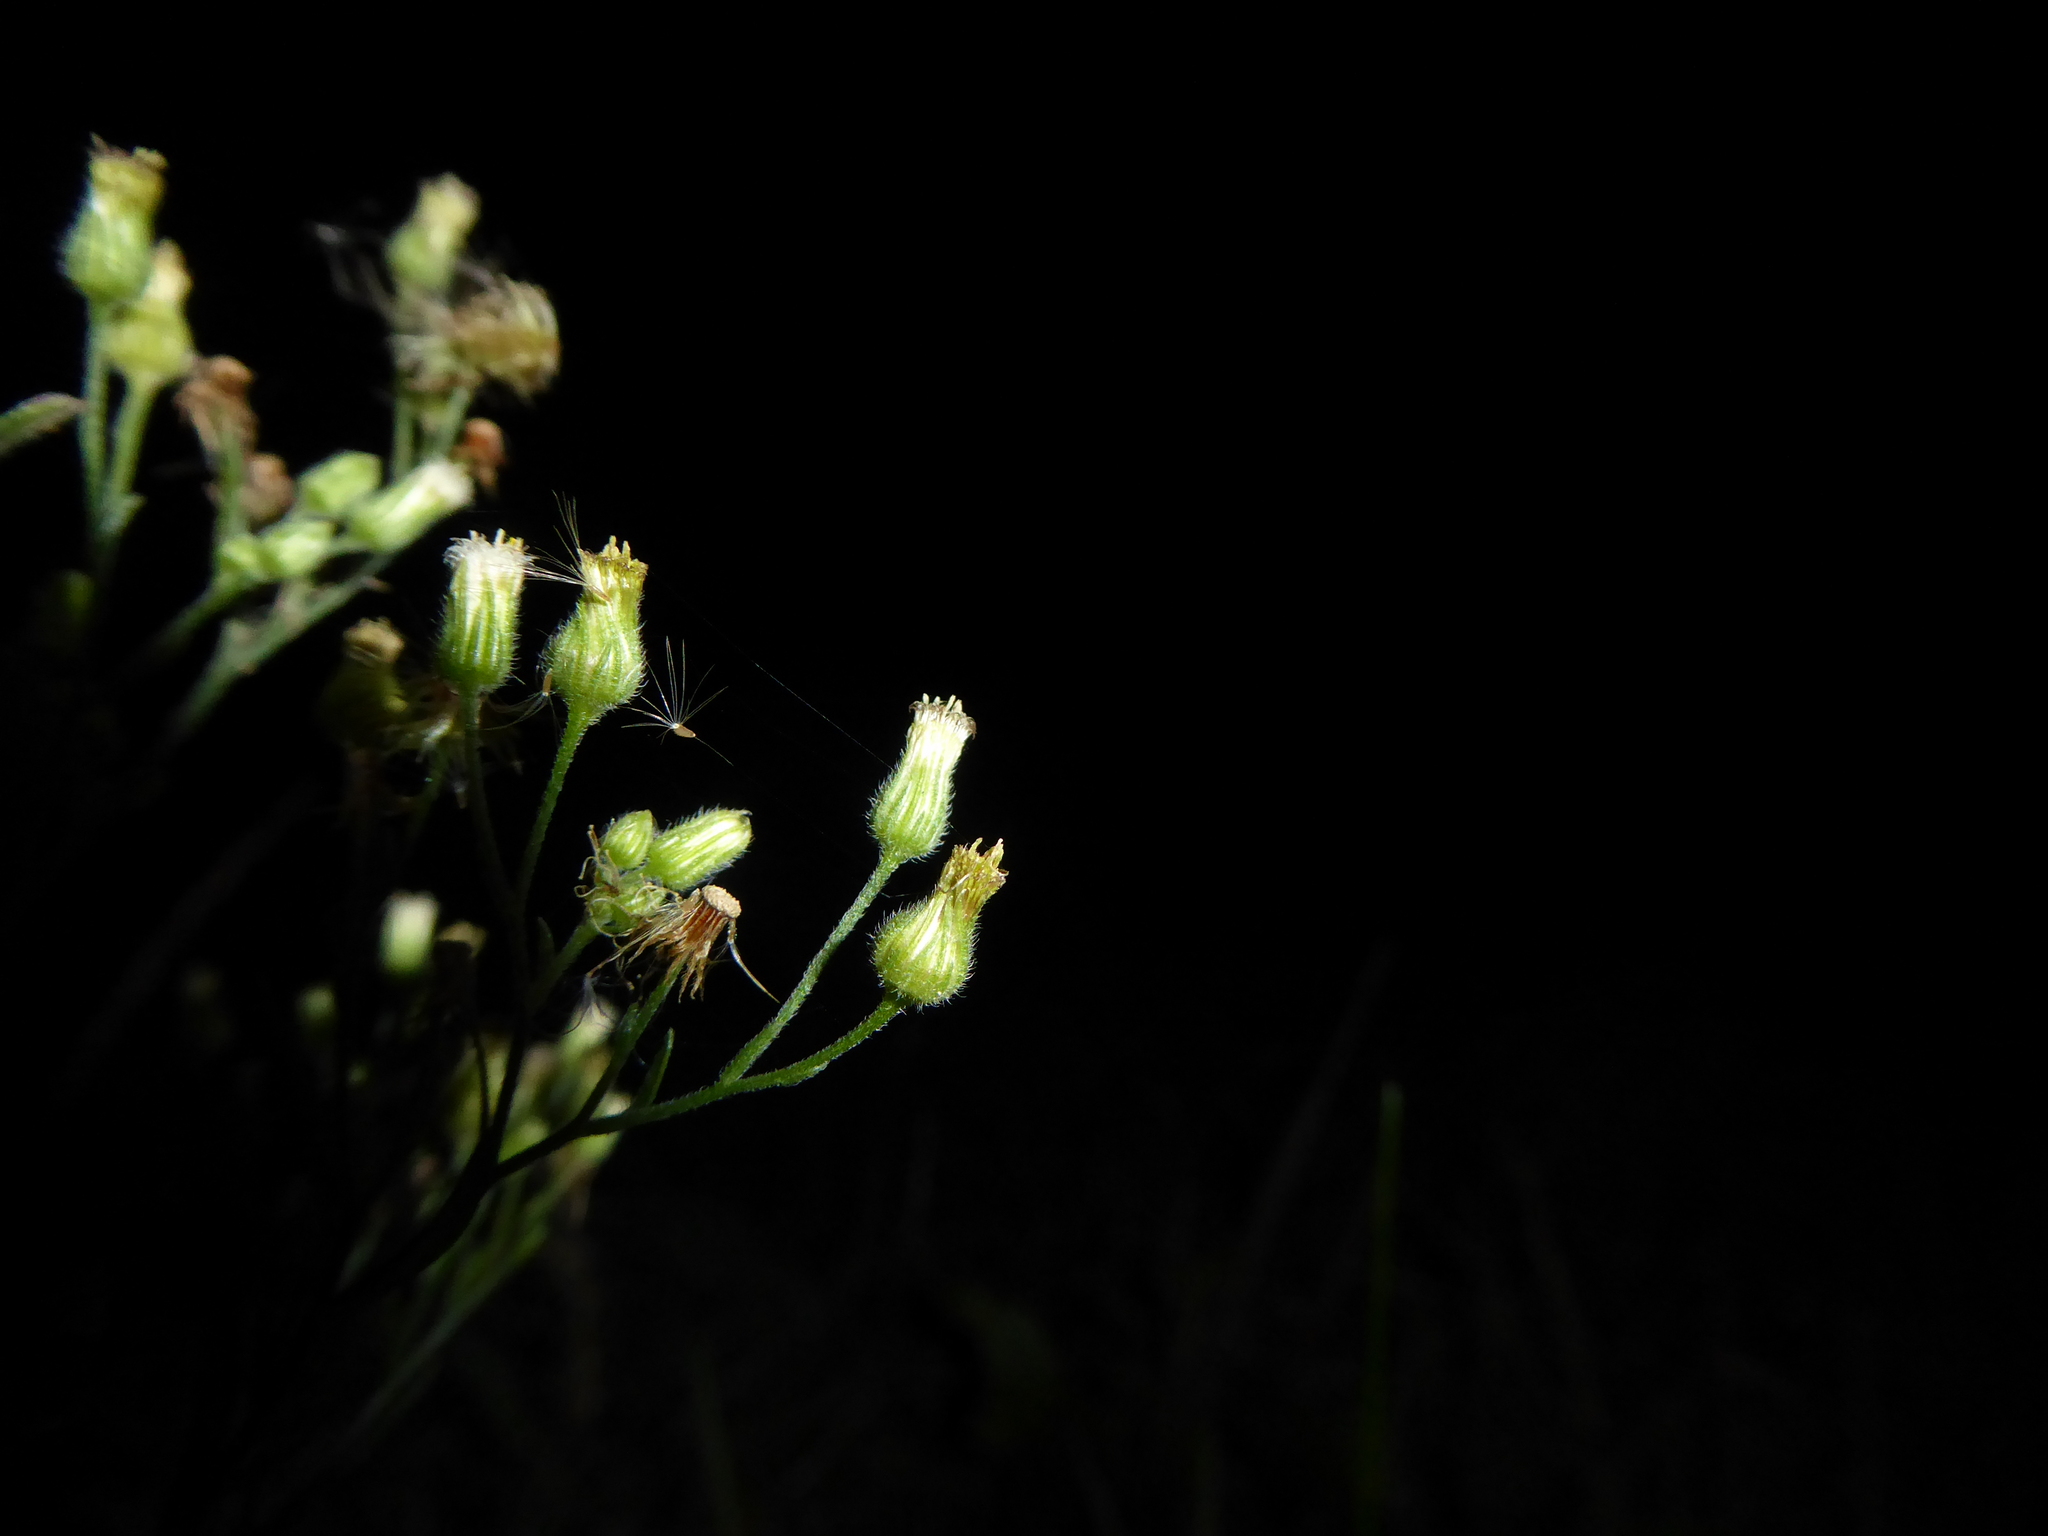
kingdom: Plantae
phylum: Tracheophyta
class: Magnoliopsida
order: Asterales
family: Asteraceae
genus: Erigeron
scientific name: Erigeron sumatrensis
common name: Daisy
